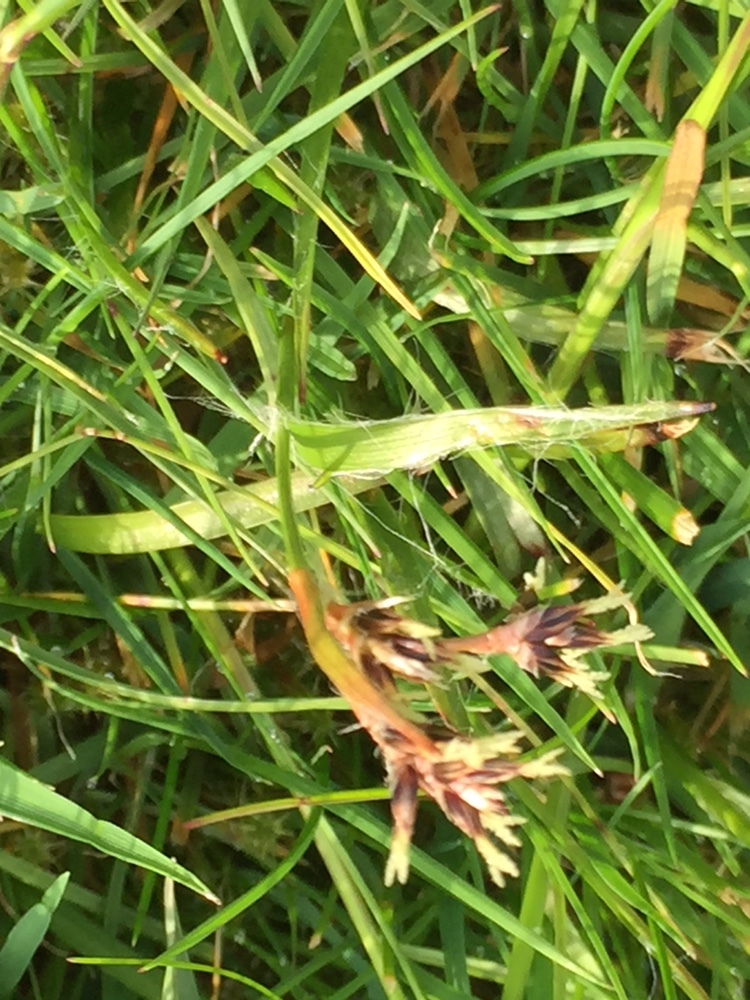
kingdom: Plantae
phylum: Tracheophyta
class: Liliopsida
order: Poales
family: Juncaceae
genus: Luzula
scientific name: Luzula campestris
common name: Field wood-rush
